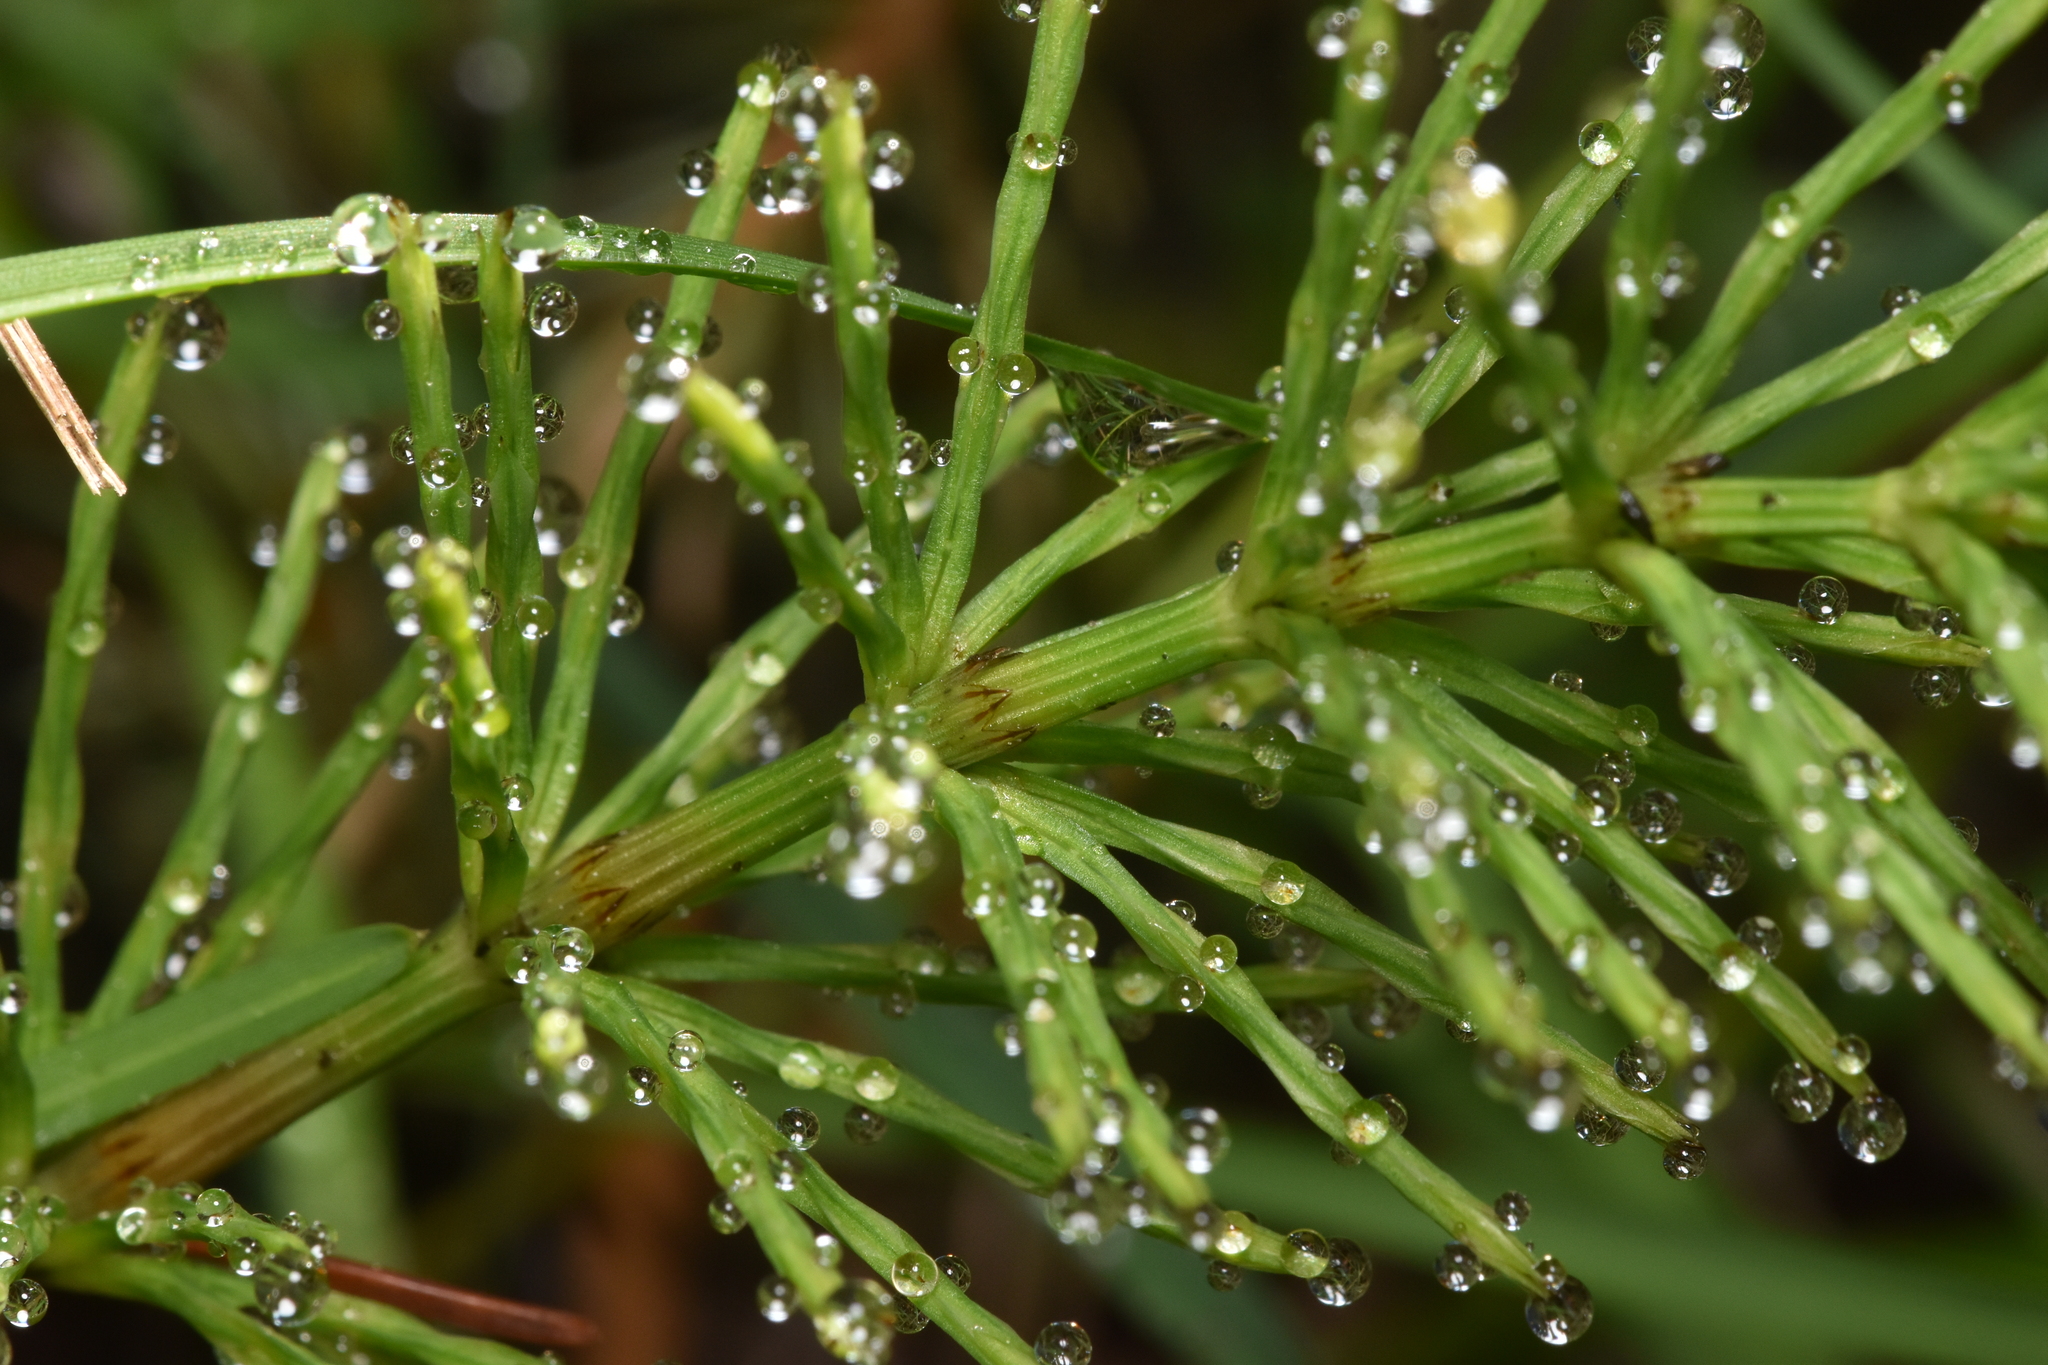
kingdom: Plantae
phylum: Tracheophyta
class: Polypodiopsida
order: Equisetales
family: Equisetaceae
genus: Equisetum
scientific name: Equisetum arvense
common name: Field horsetail
